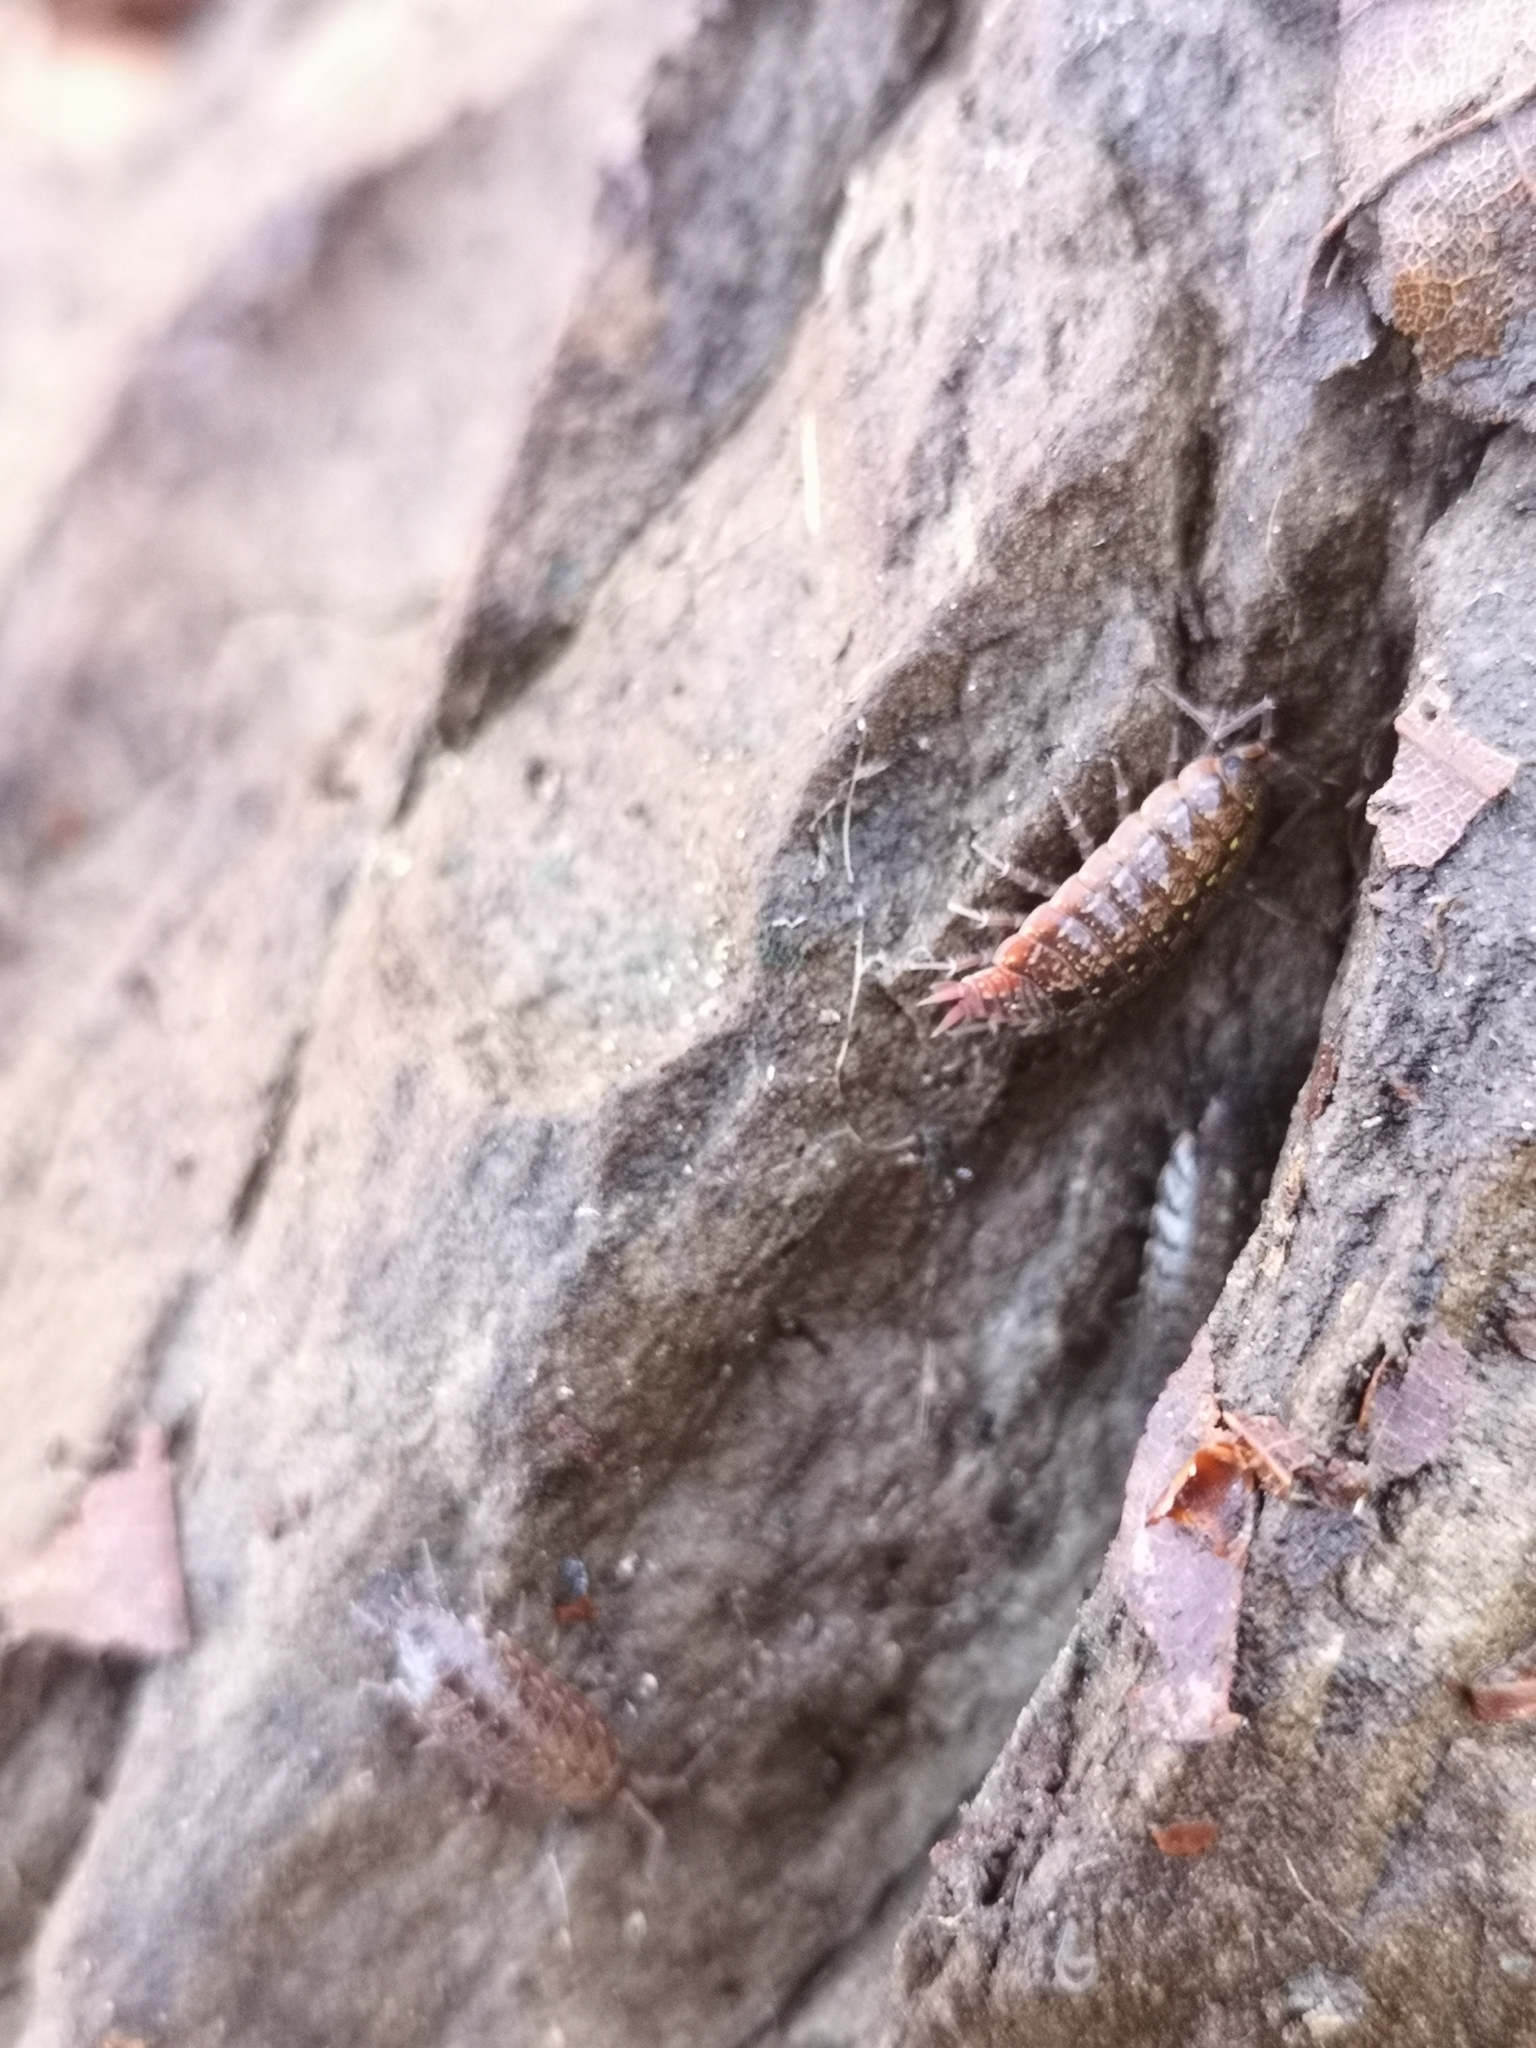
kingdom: Animalia
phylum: Arthropoda
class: Malacostraca
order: Isopoda
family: Philosciidae
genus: Philoscia
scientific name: Philoscia affinis
